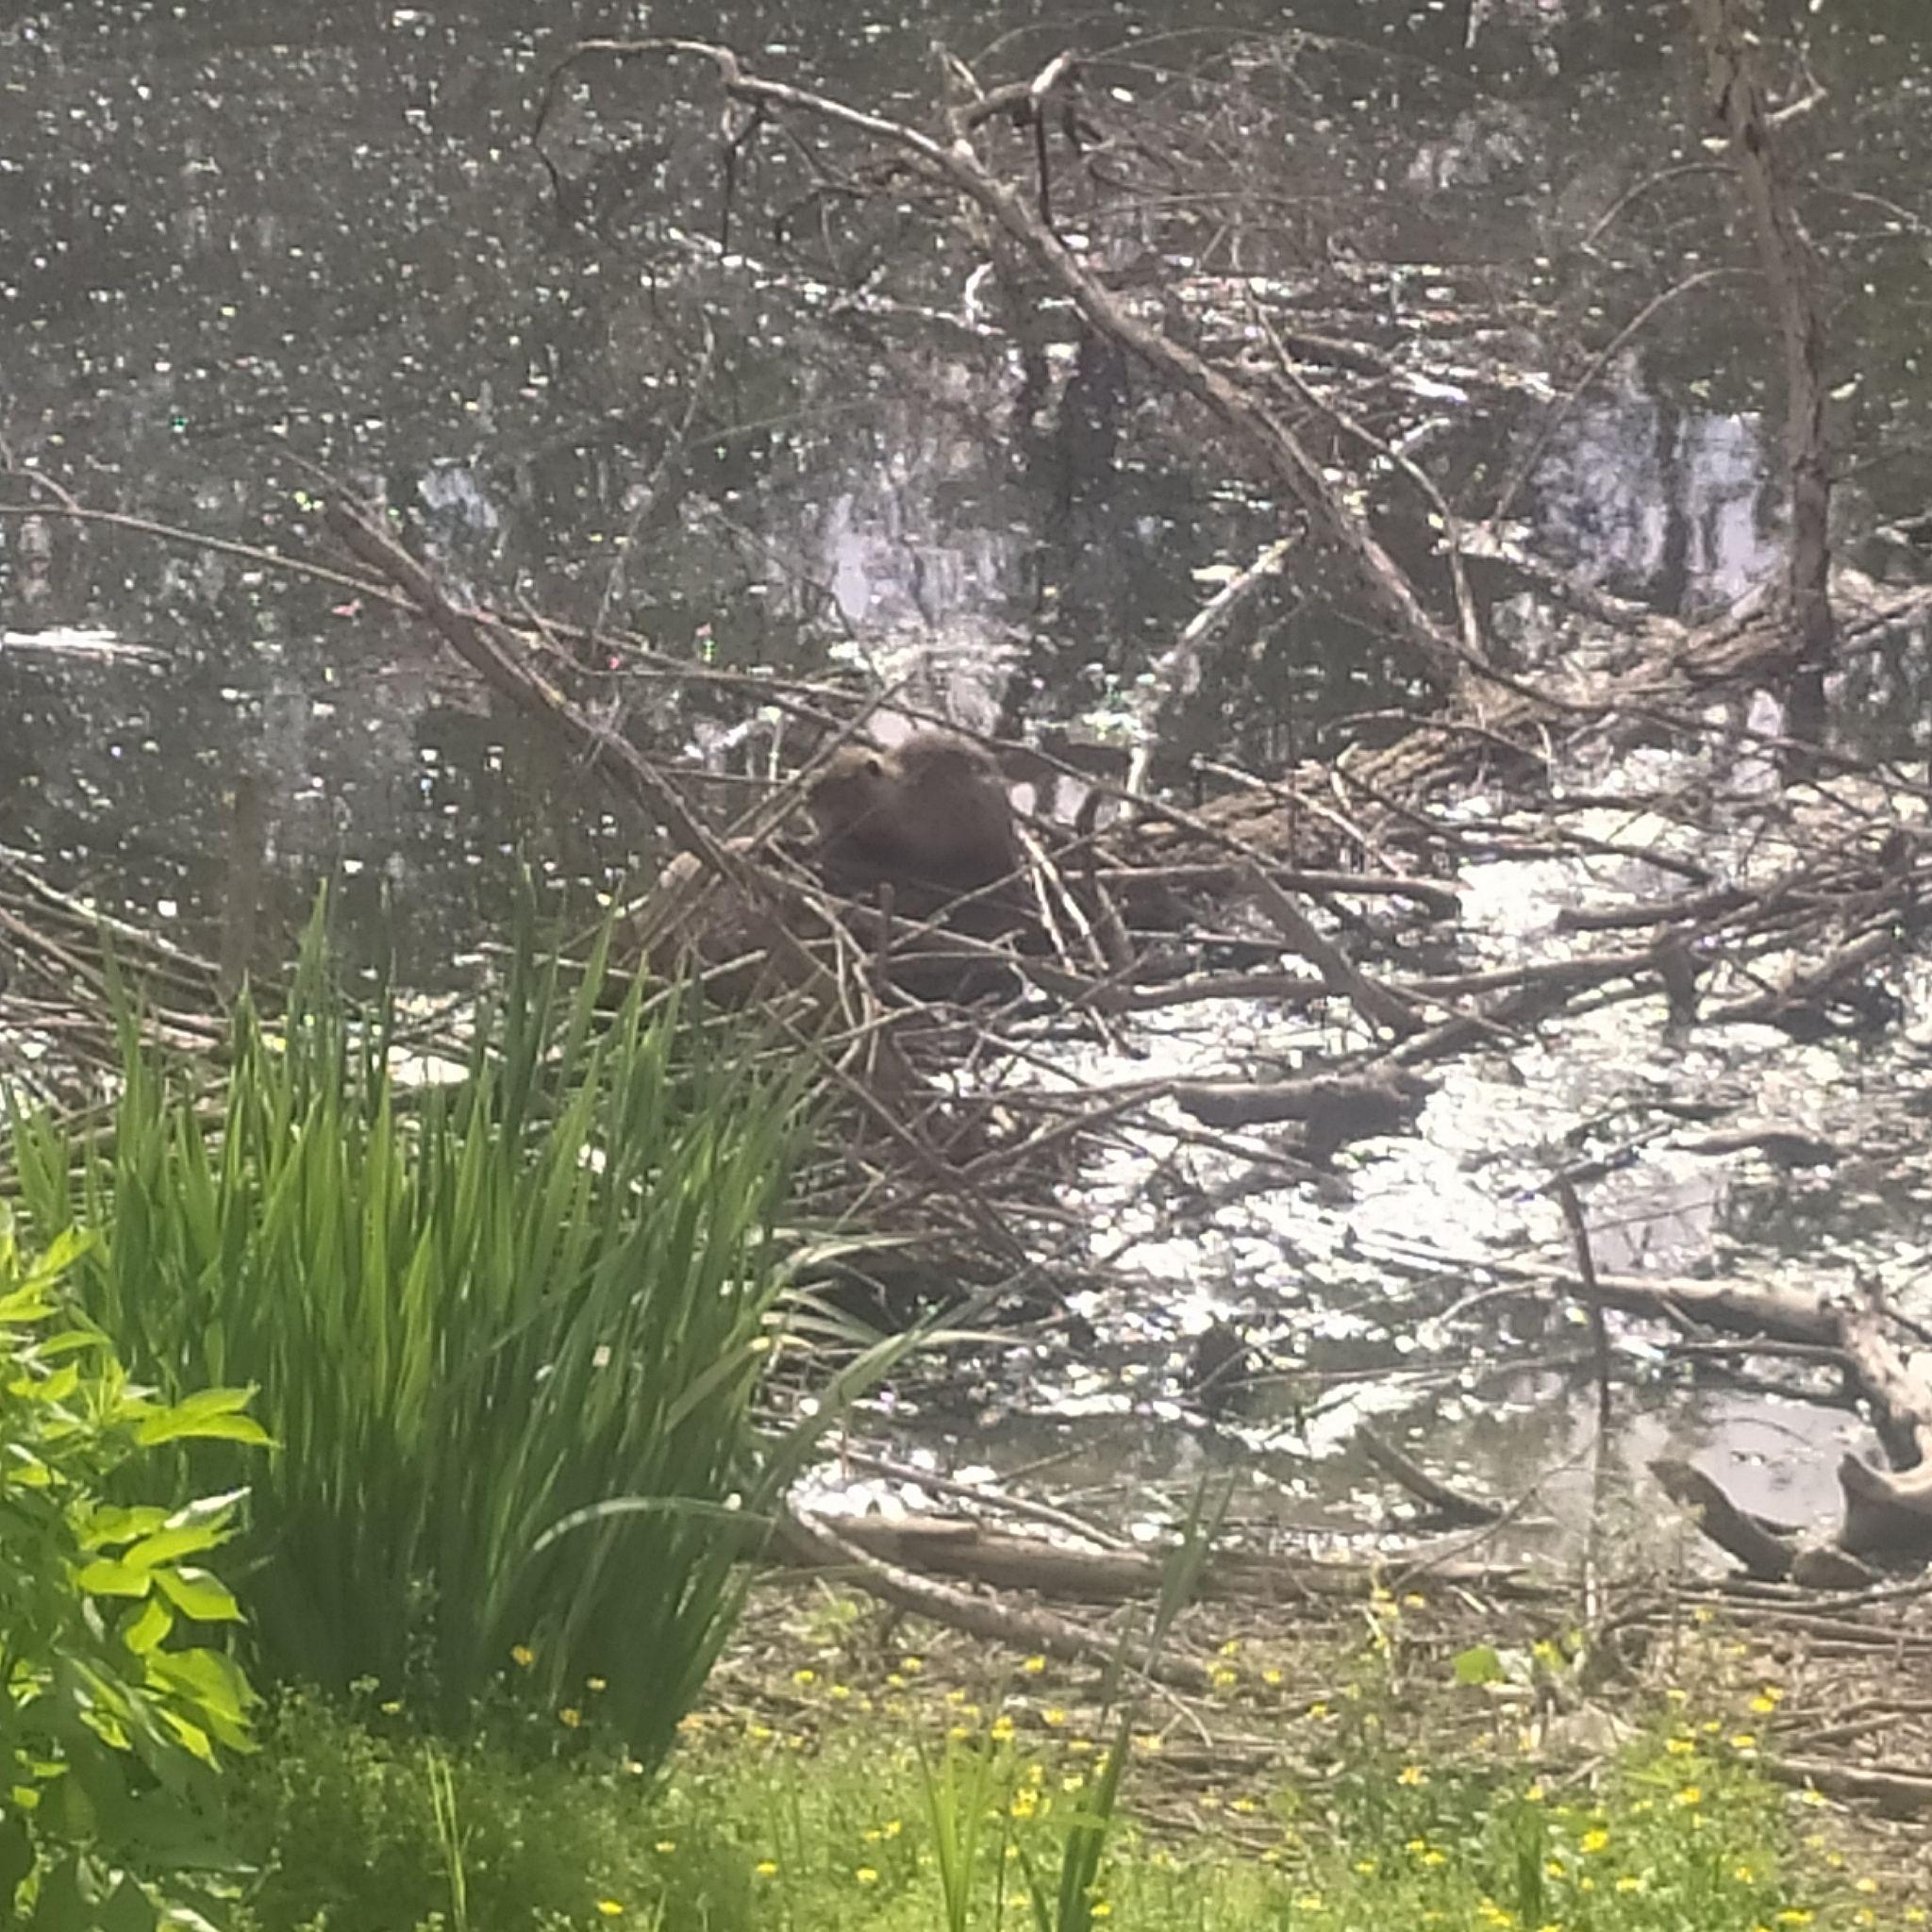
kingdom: Animalia
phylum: Chordata
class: Mammalia
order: Rodentia
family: Myocastoridae
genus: Myocastor
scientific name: Myocastor coypus
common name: Coypu
